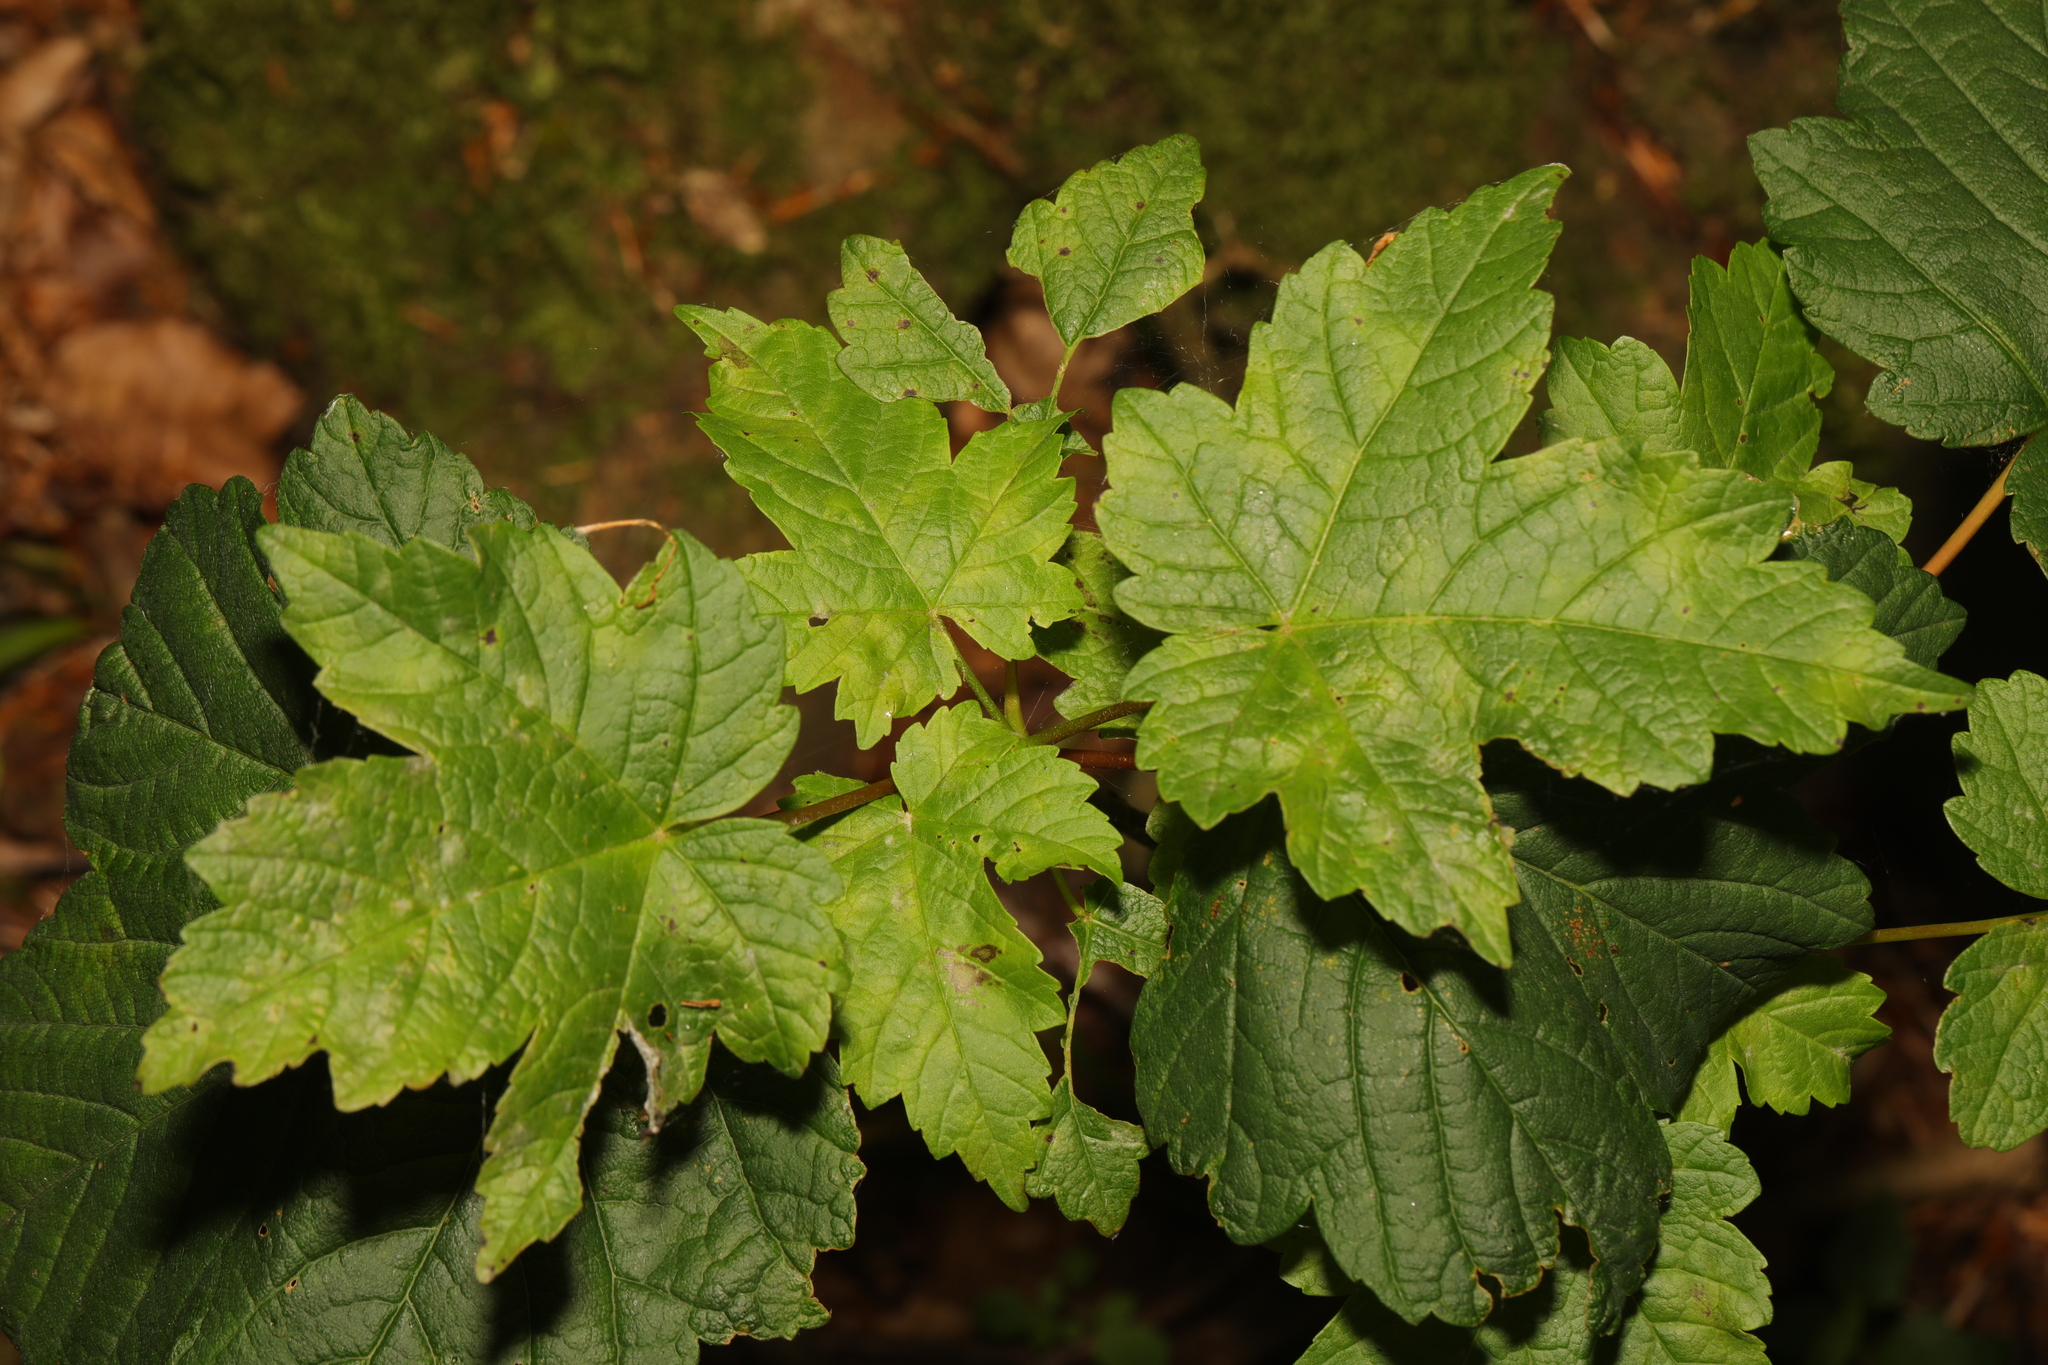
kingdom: Plantae
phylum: Tracheophyta
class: Magnoliopsida
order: Sapindales
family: Sapindaceae
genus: Acer
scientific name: Acer pseudoplatanus
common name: Sycamore
